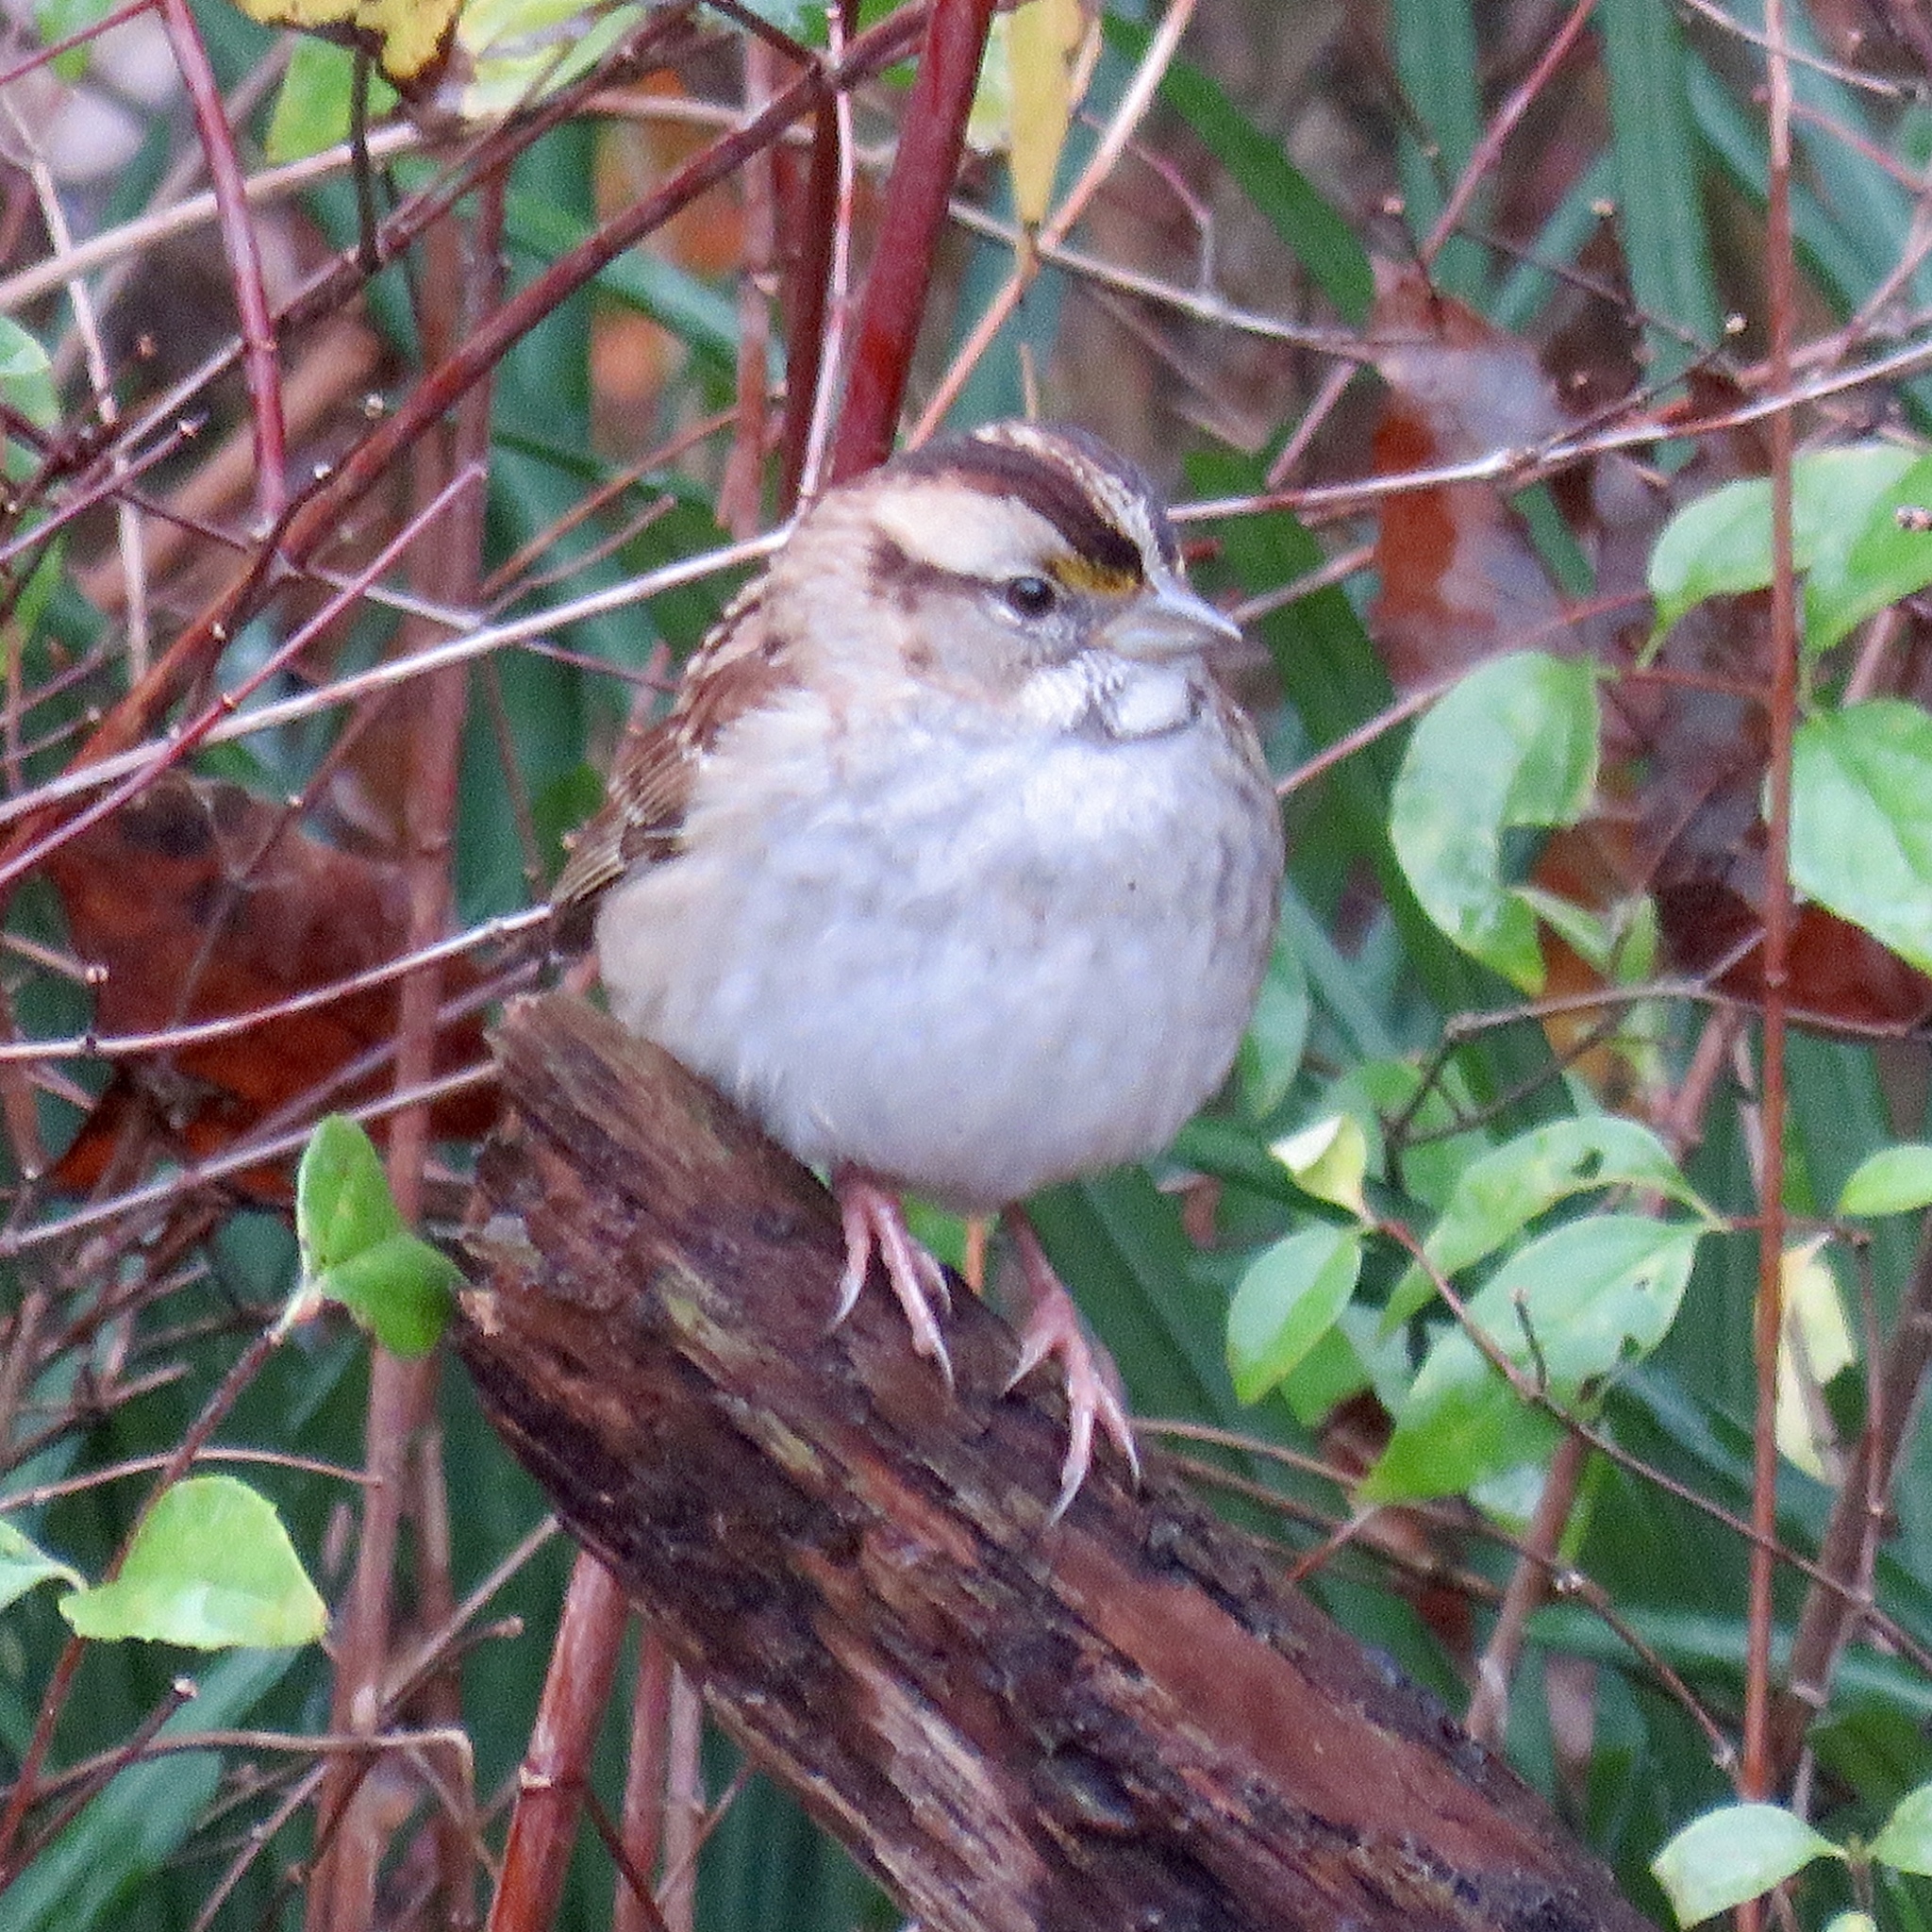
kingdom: Animalia
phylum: Chordata
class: Aves
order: Passeriformes
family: Passerellidae
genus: Zonotrichia
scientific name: Zonotrichia albicollis
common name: White-throated sparrow
